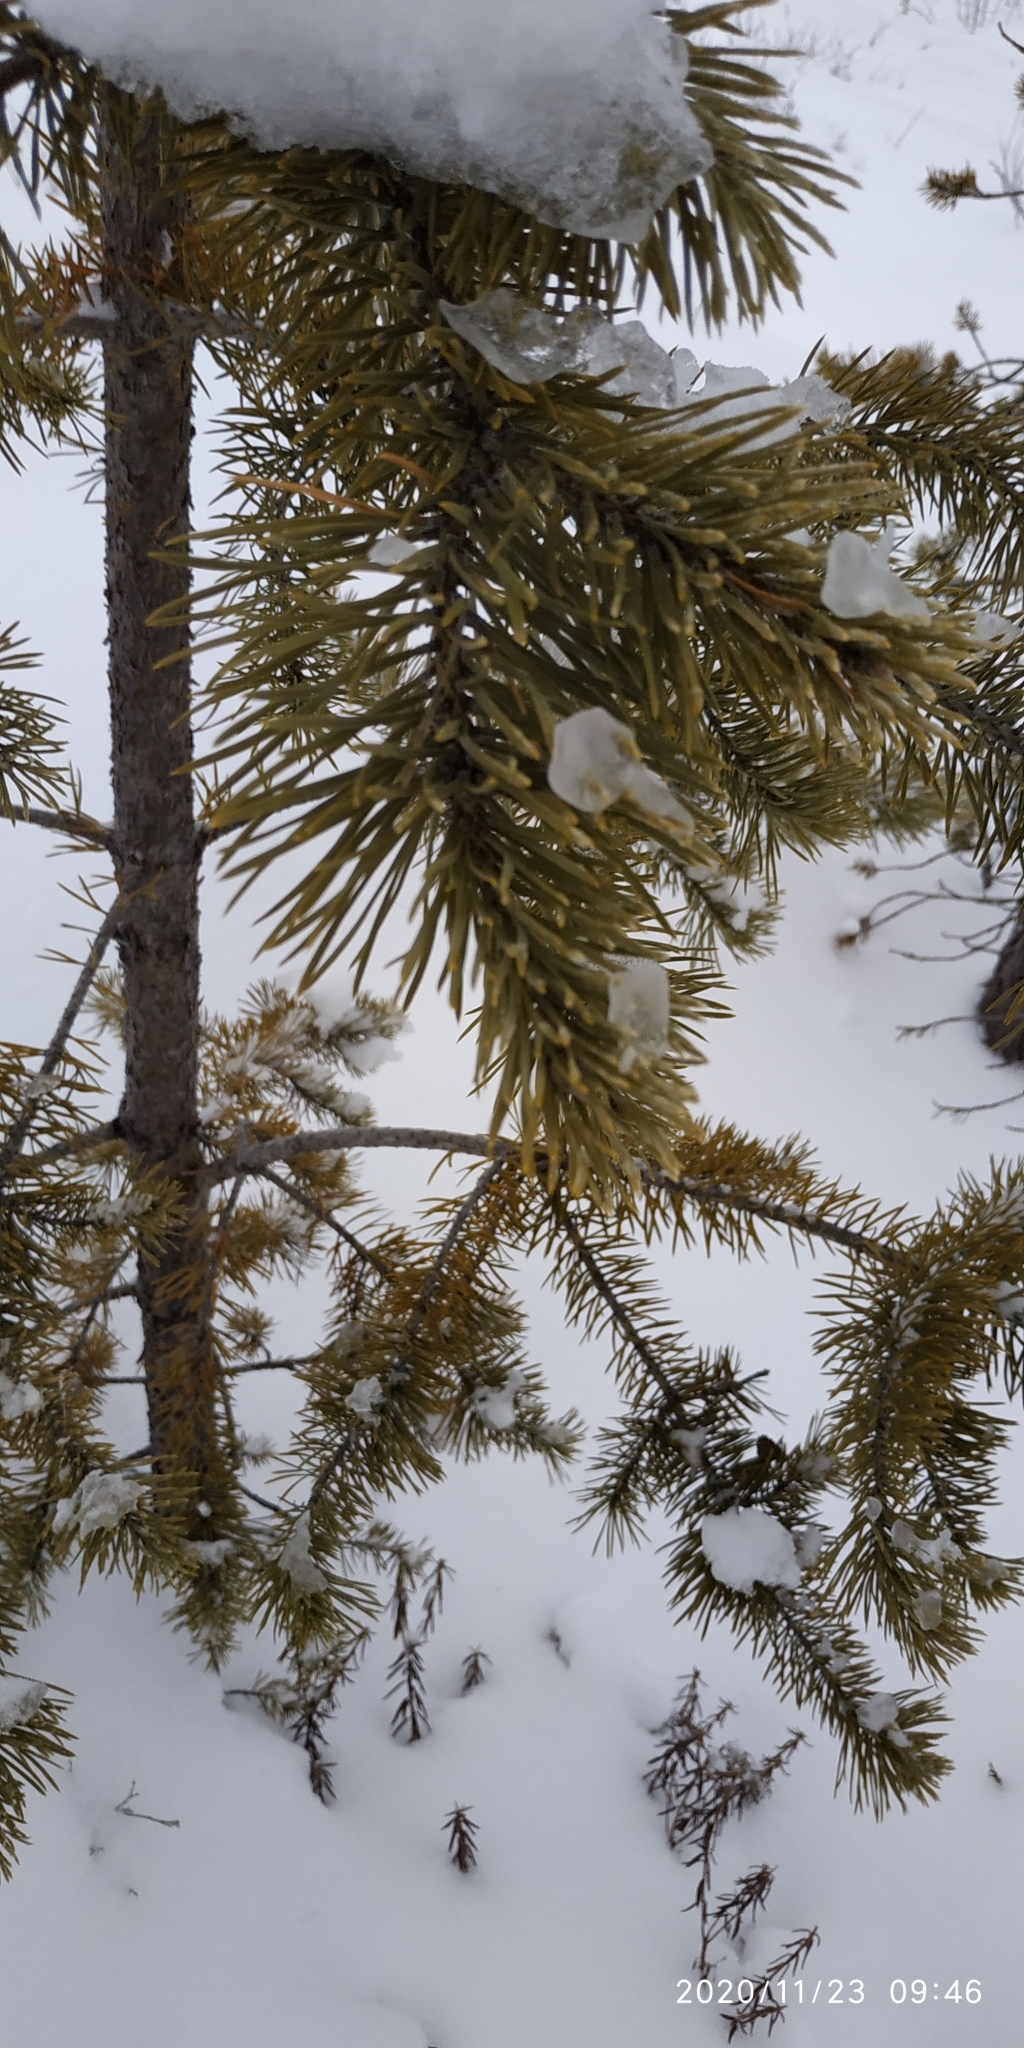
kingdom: Plantae
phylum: Tracheophyta
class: Pinopsida
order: Pinales
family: Pinaceae
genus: Pinus
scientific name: Pinus sylvestris
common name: Scots pine
